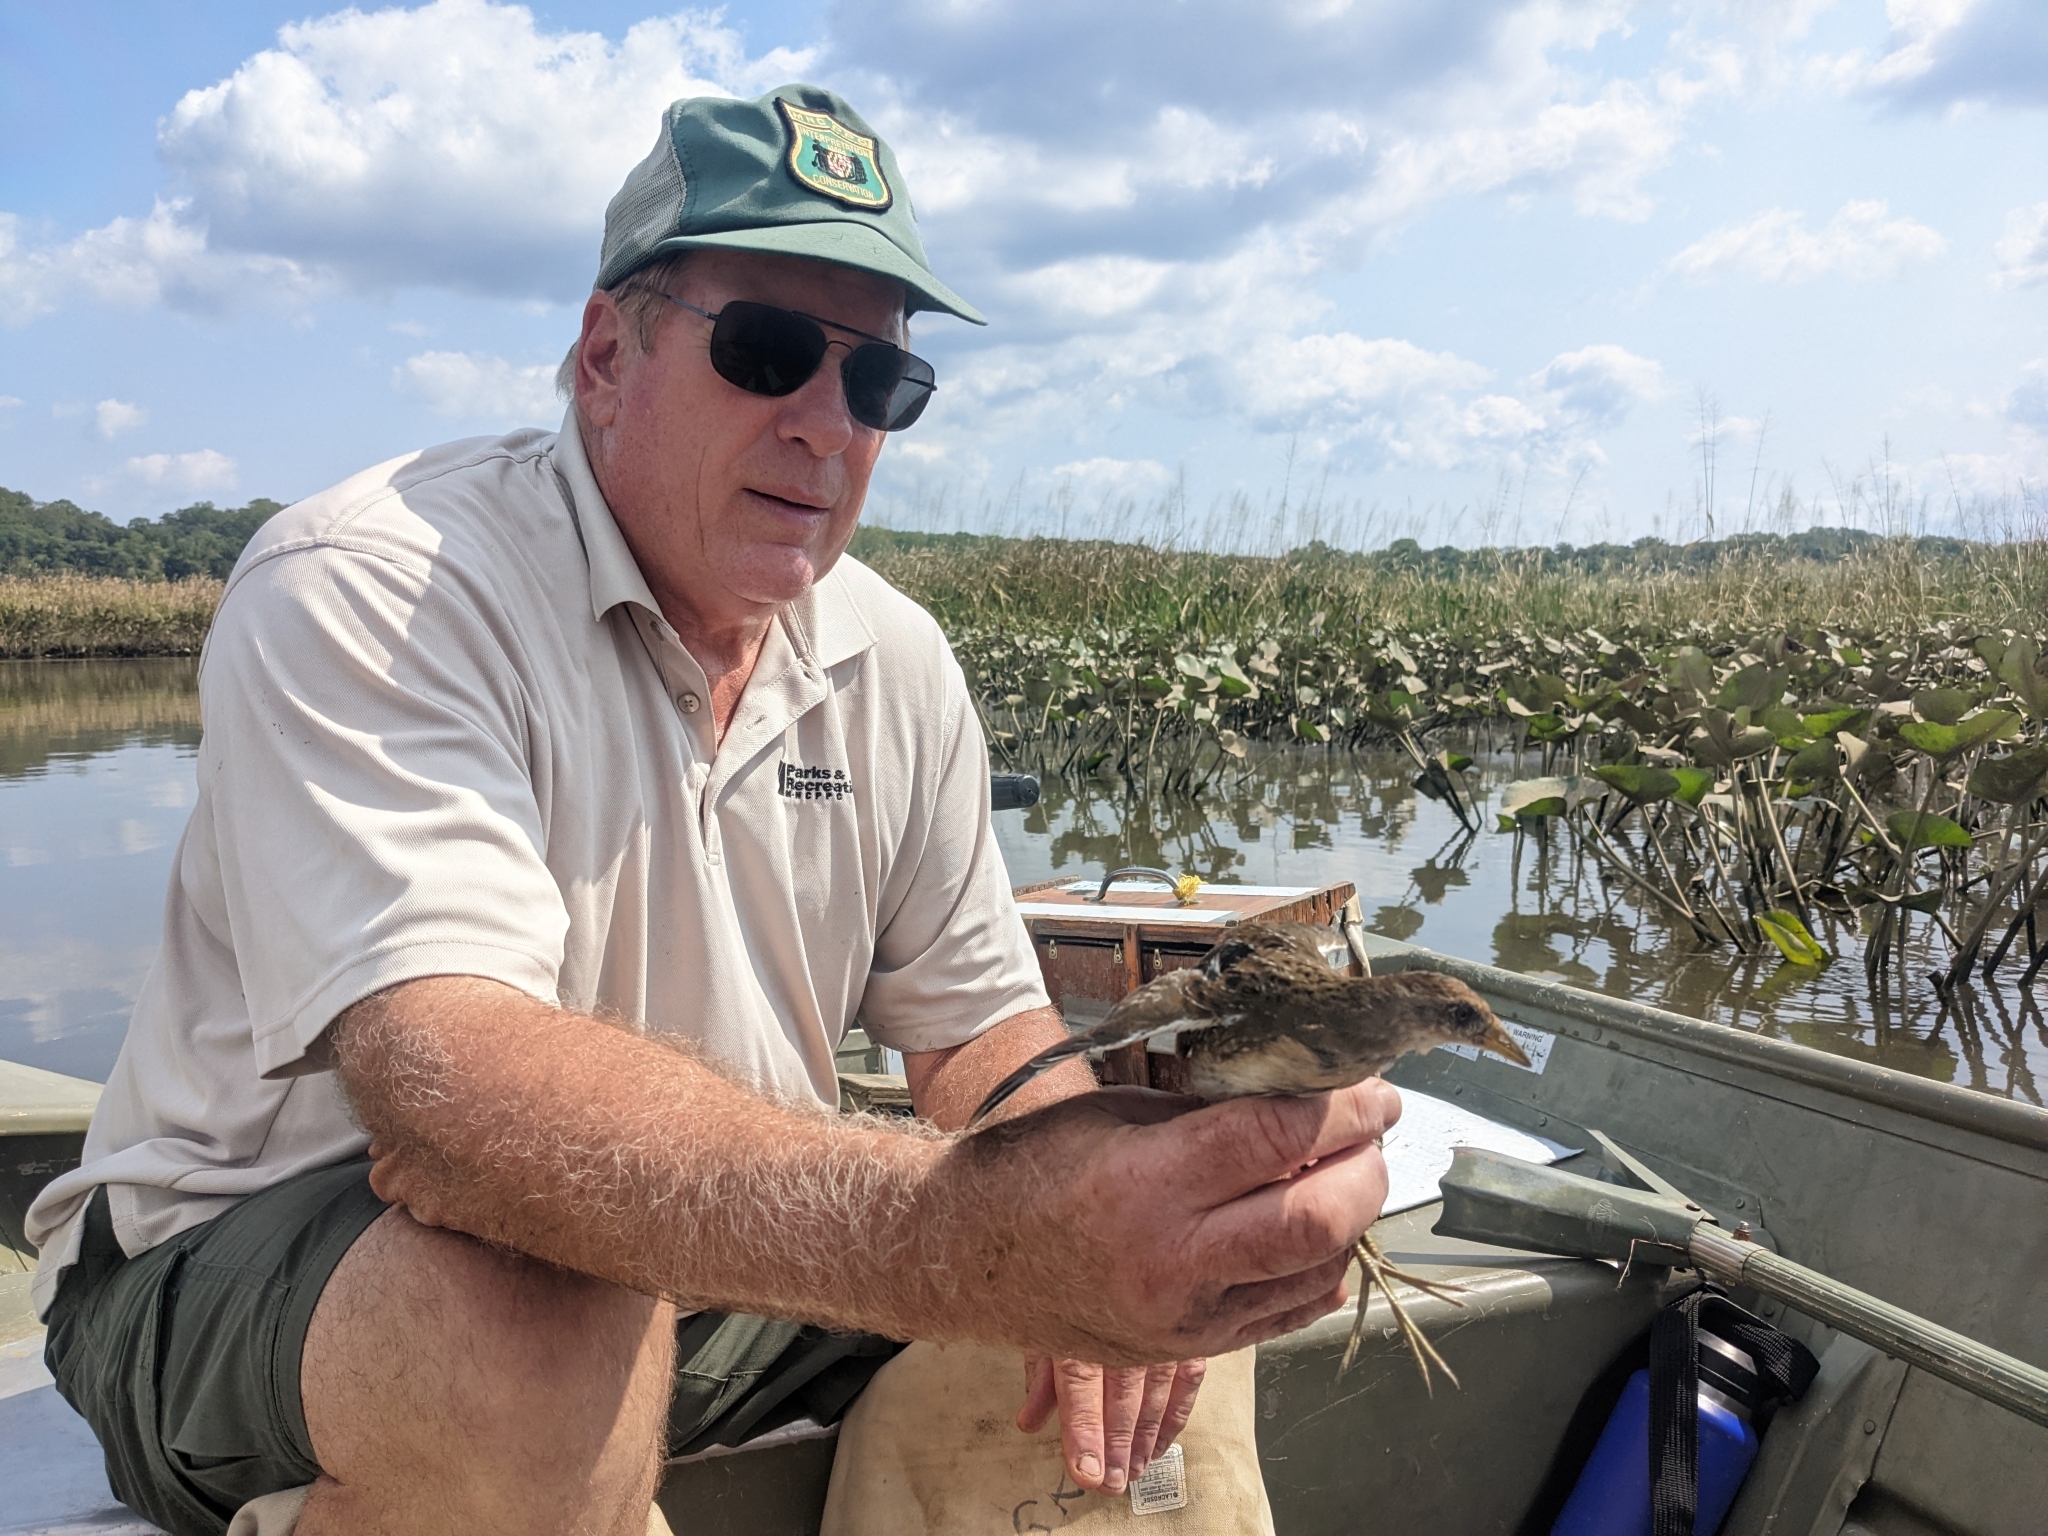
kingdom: Animalia
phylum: Chordata
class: Aves
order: Gruiformes
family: Rallidae
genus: Porzana
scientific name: Porzana carolina
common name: Sora
